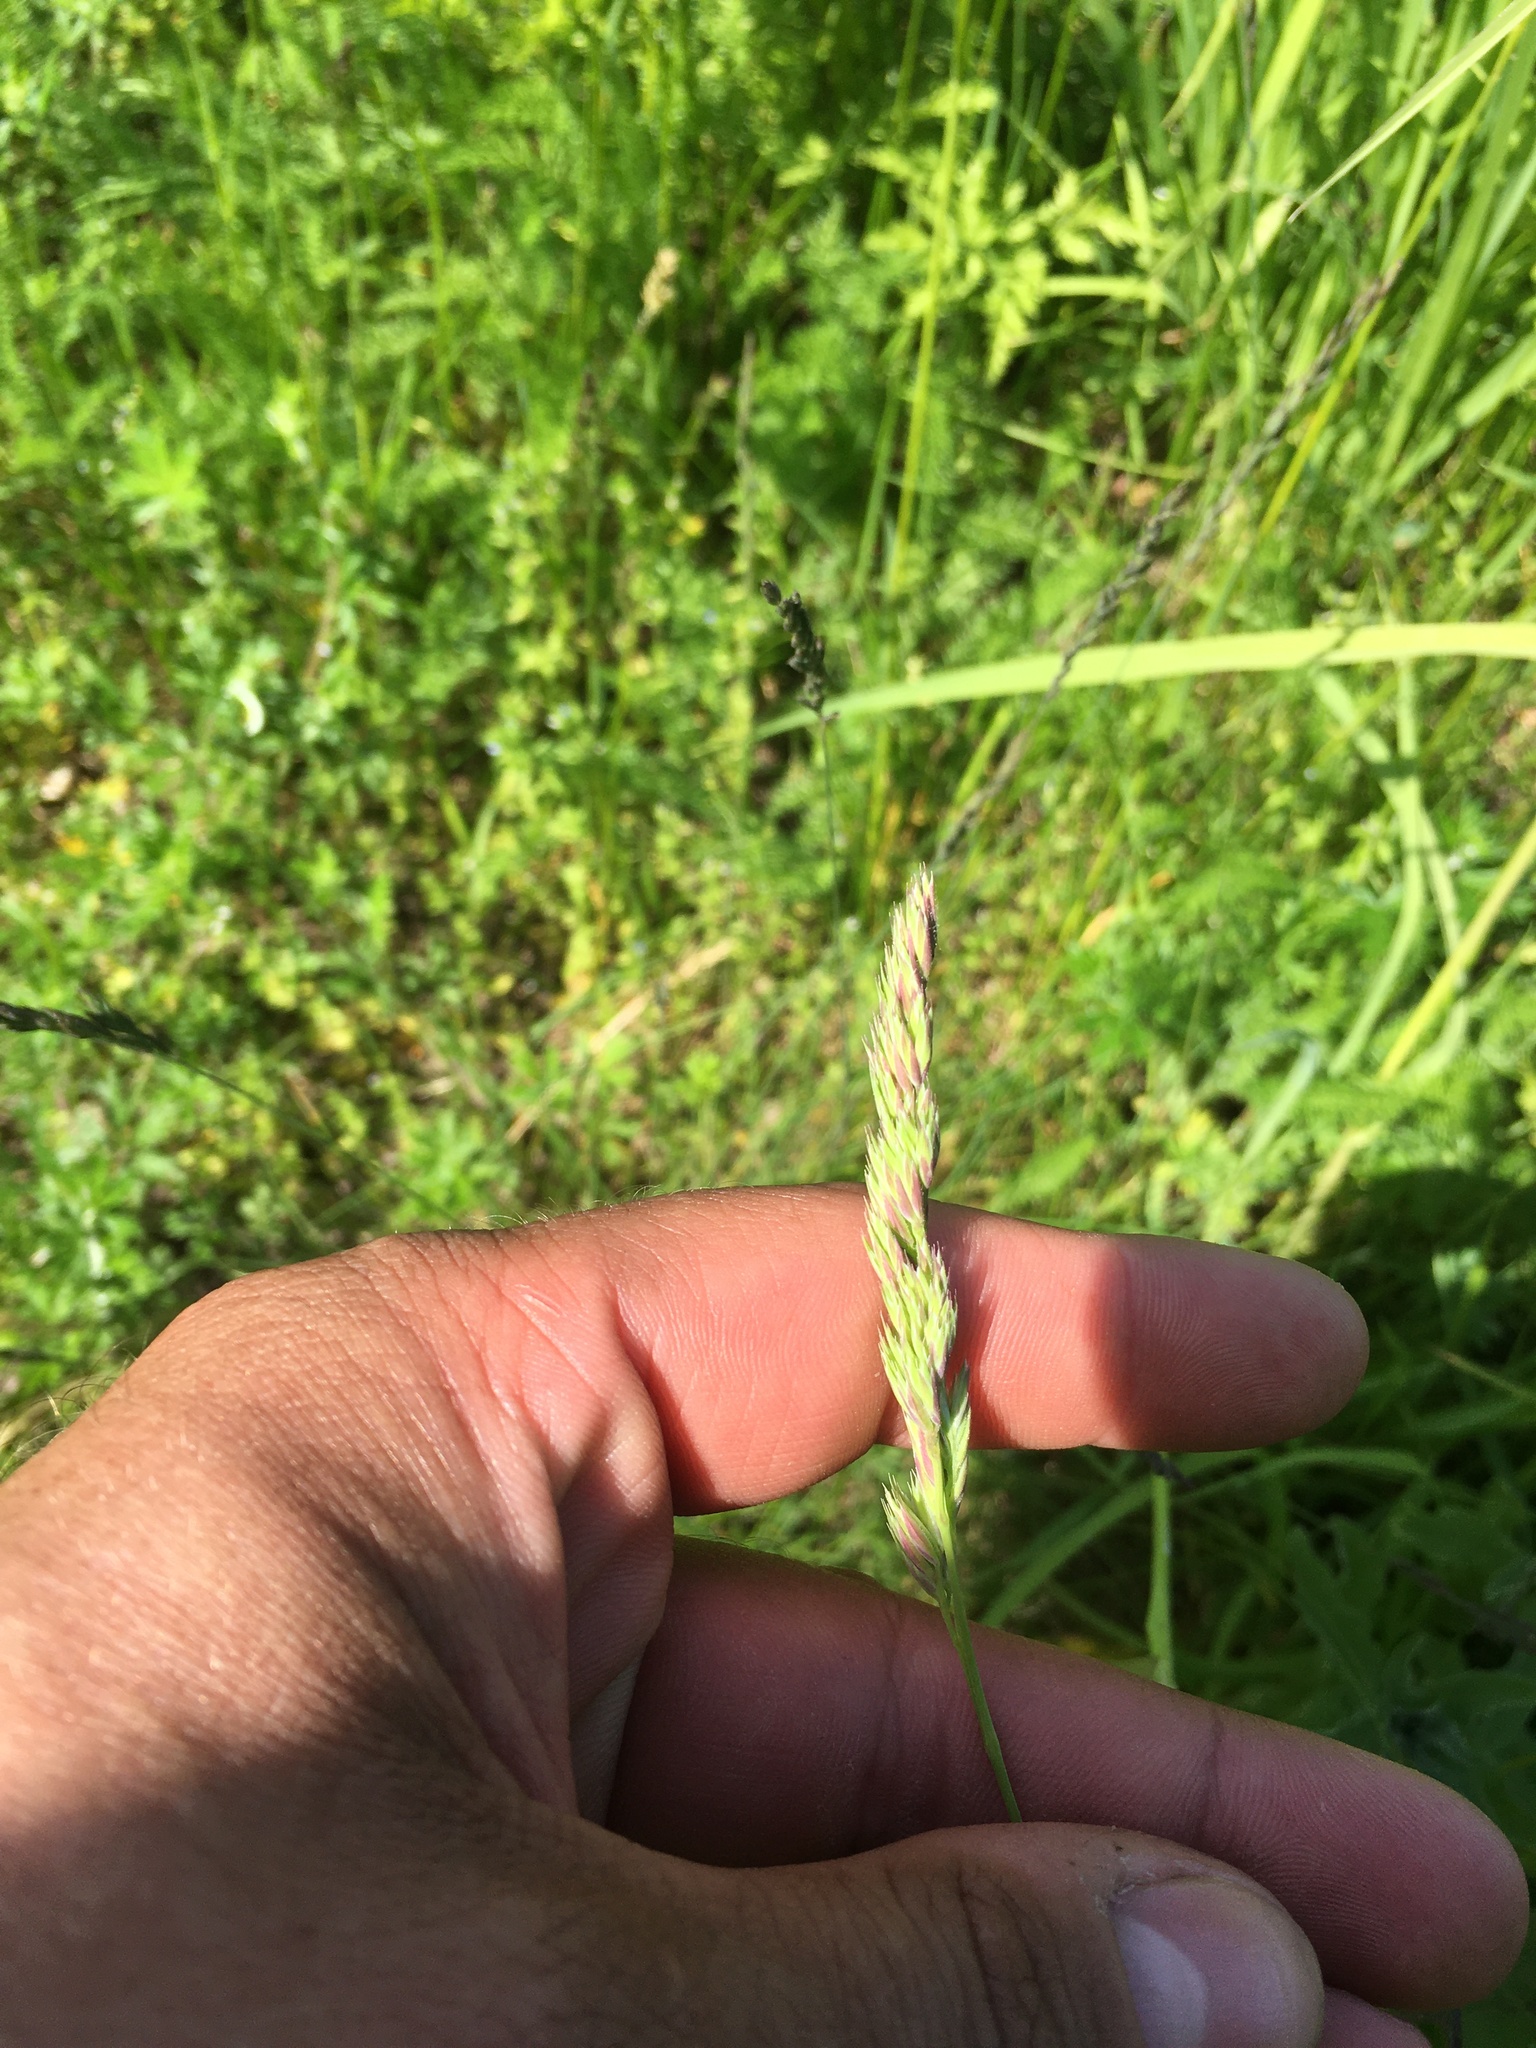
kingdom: Plantae
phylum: Tracheophyta
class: Liliopsida
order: Poales
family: Poaceae
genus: Dactylis
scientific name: Dactylis glomerata
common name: Orchardgrass
